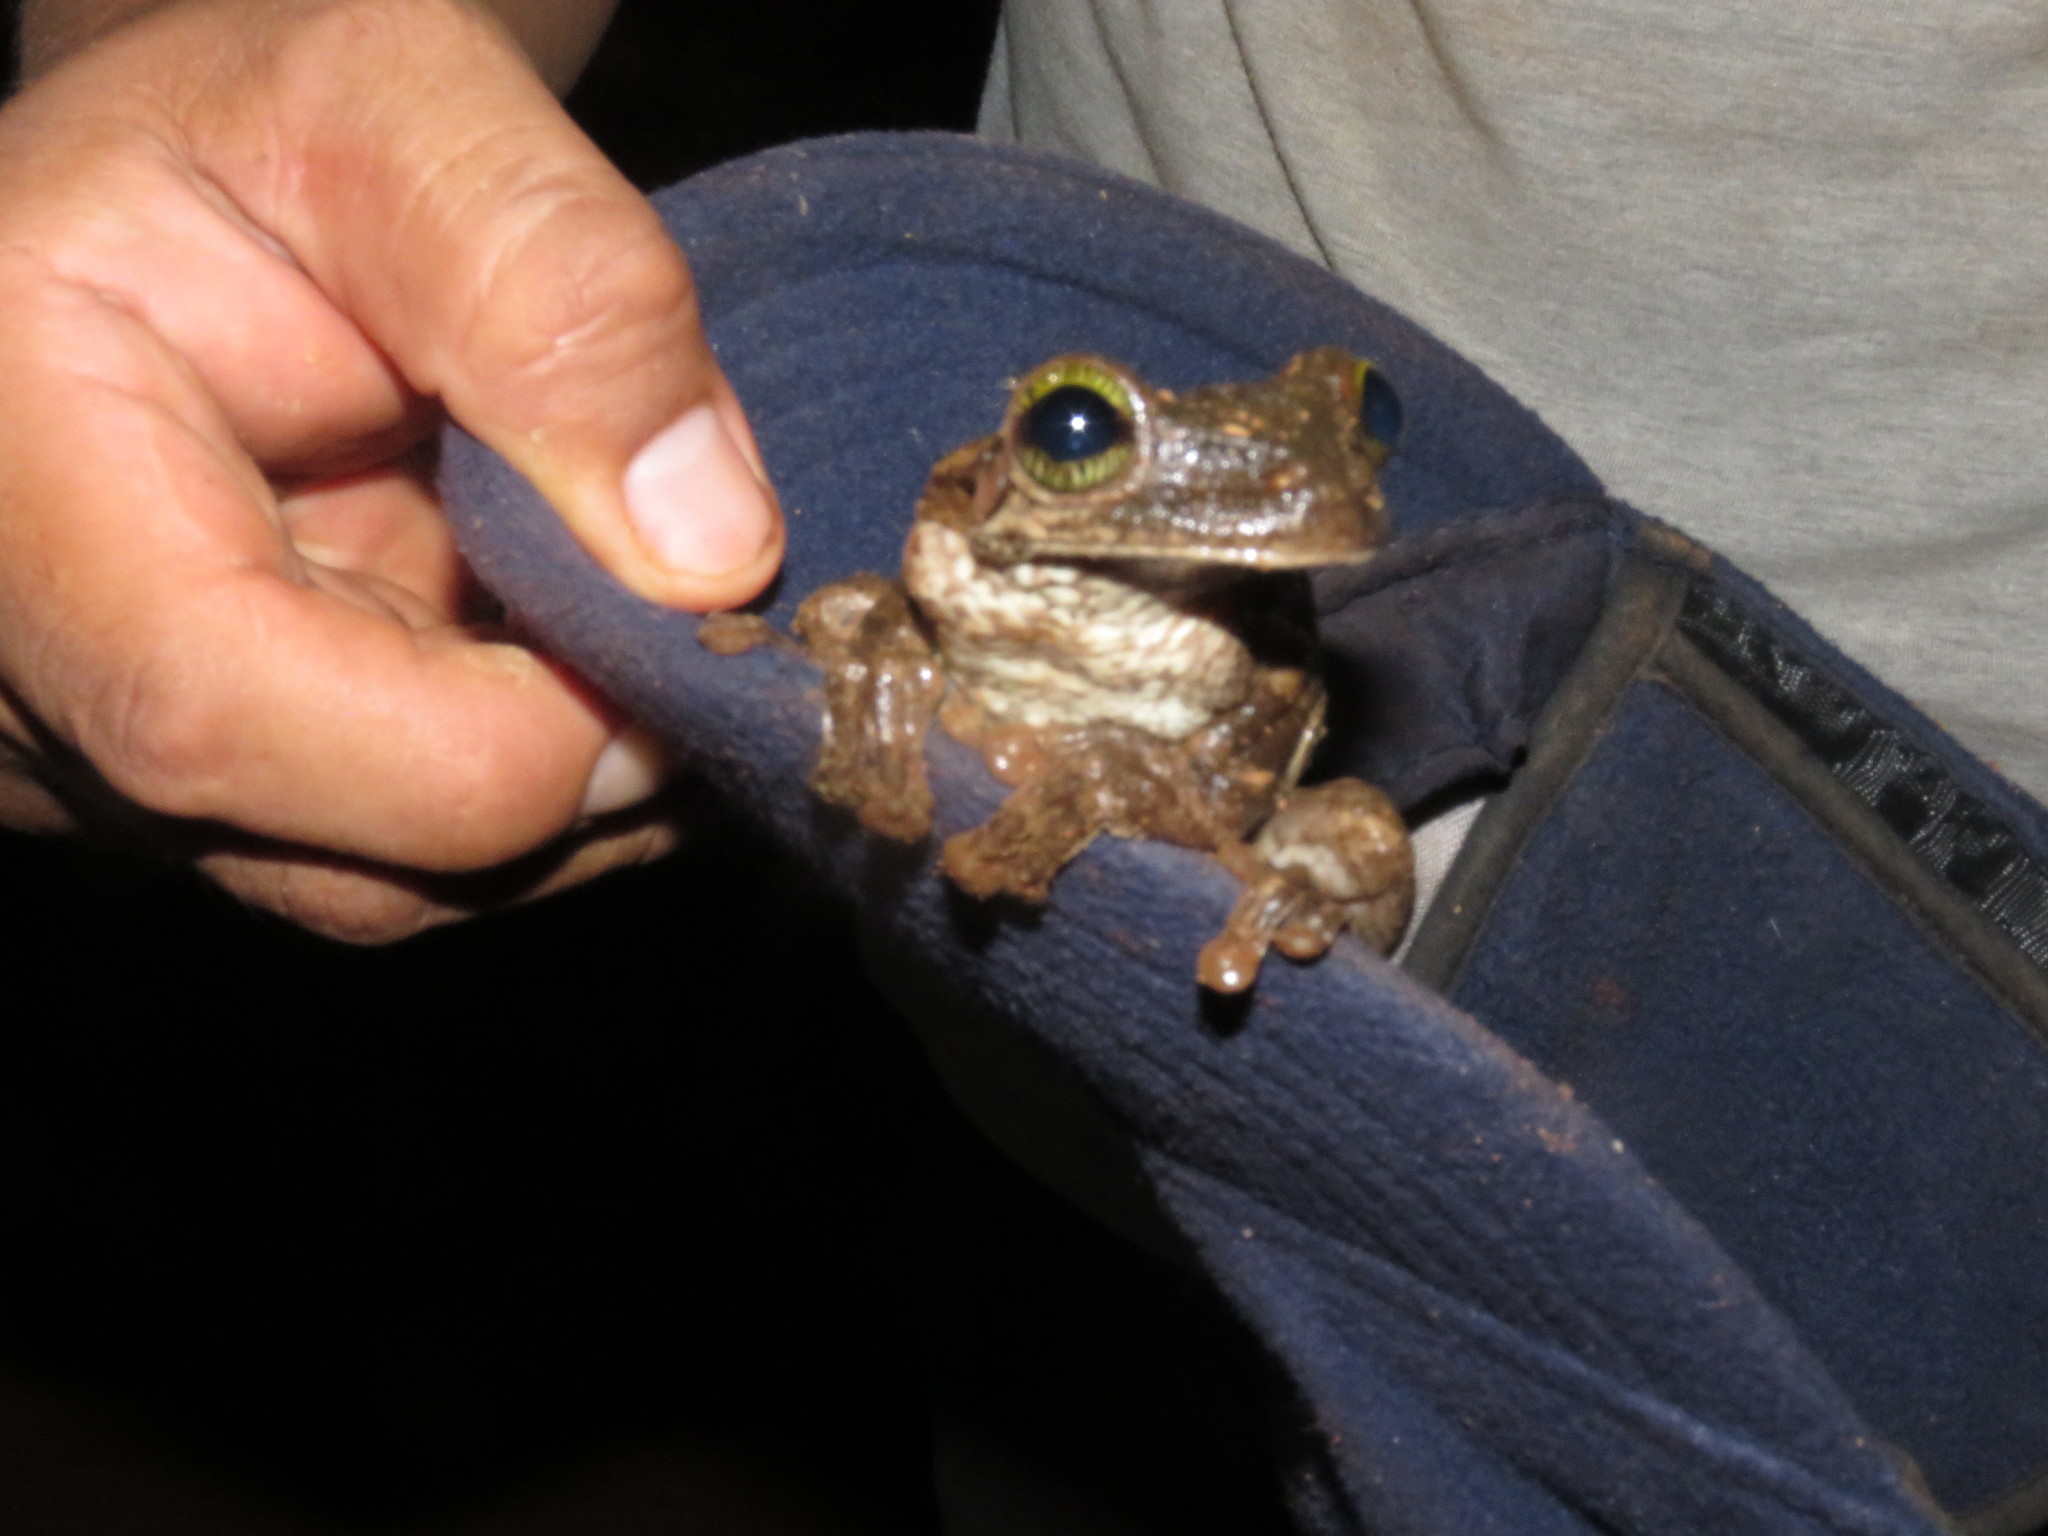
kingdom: Animalia
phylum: Chordata
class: Amphibia
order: Anura
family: Hylidae
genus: Osteocephalus
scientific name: Osteocephalus taurinus
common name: Manaus slender-legged treefrog
